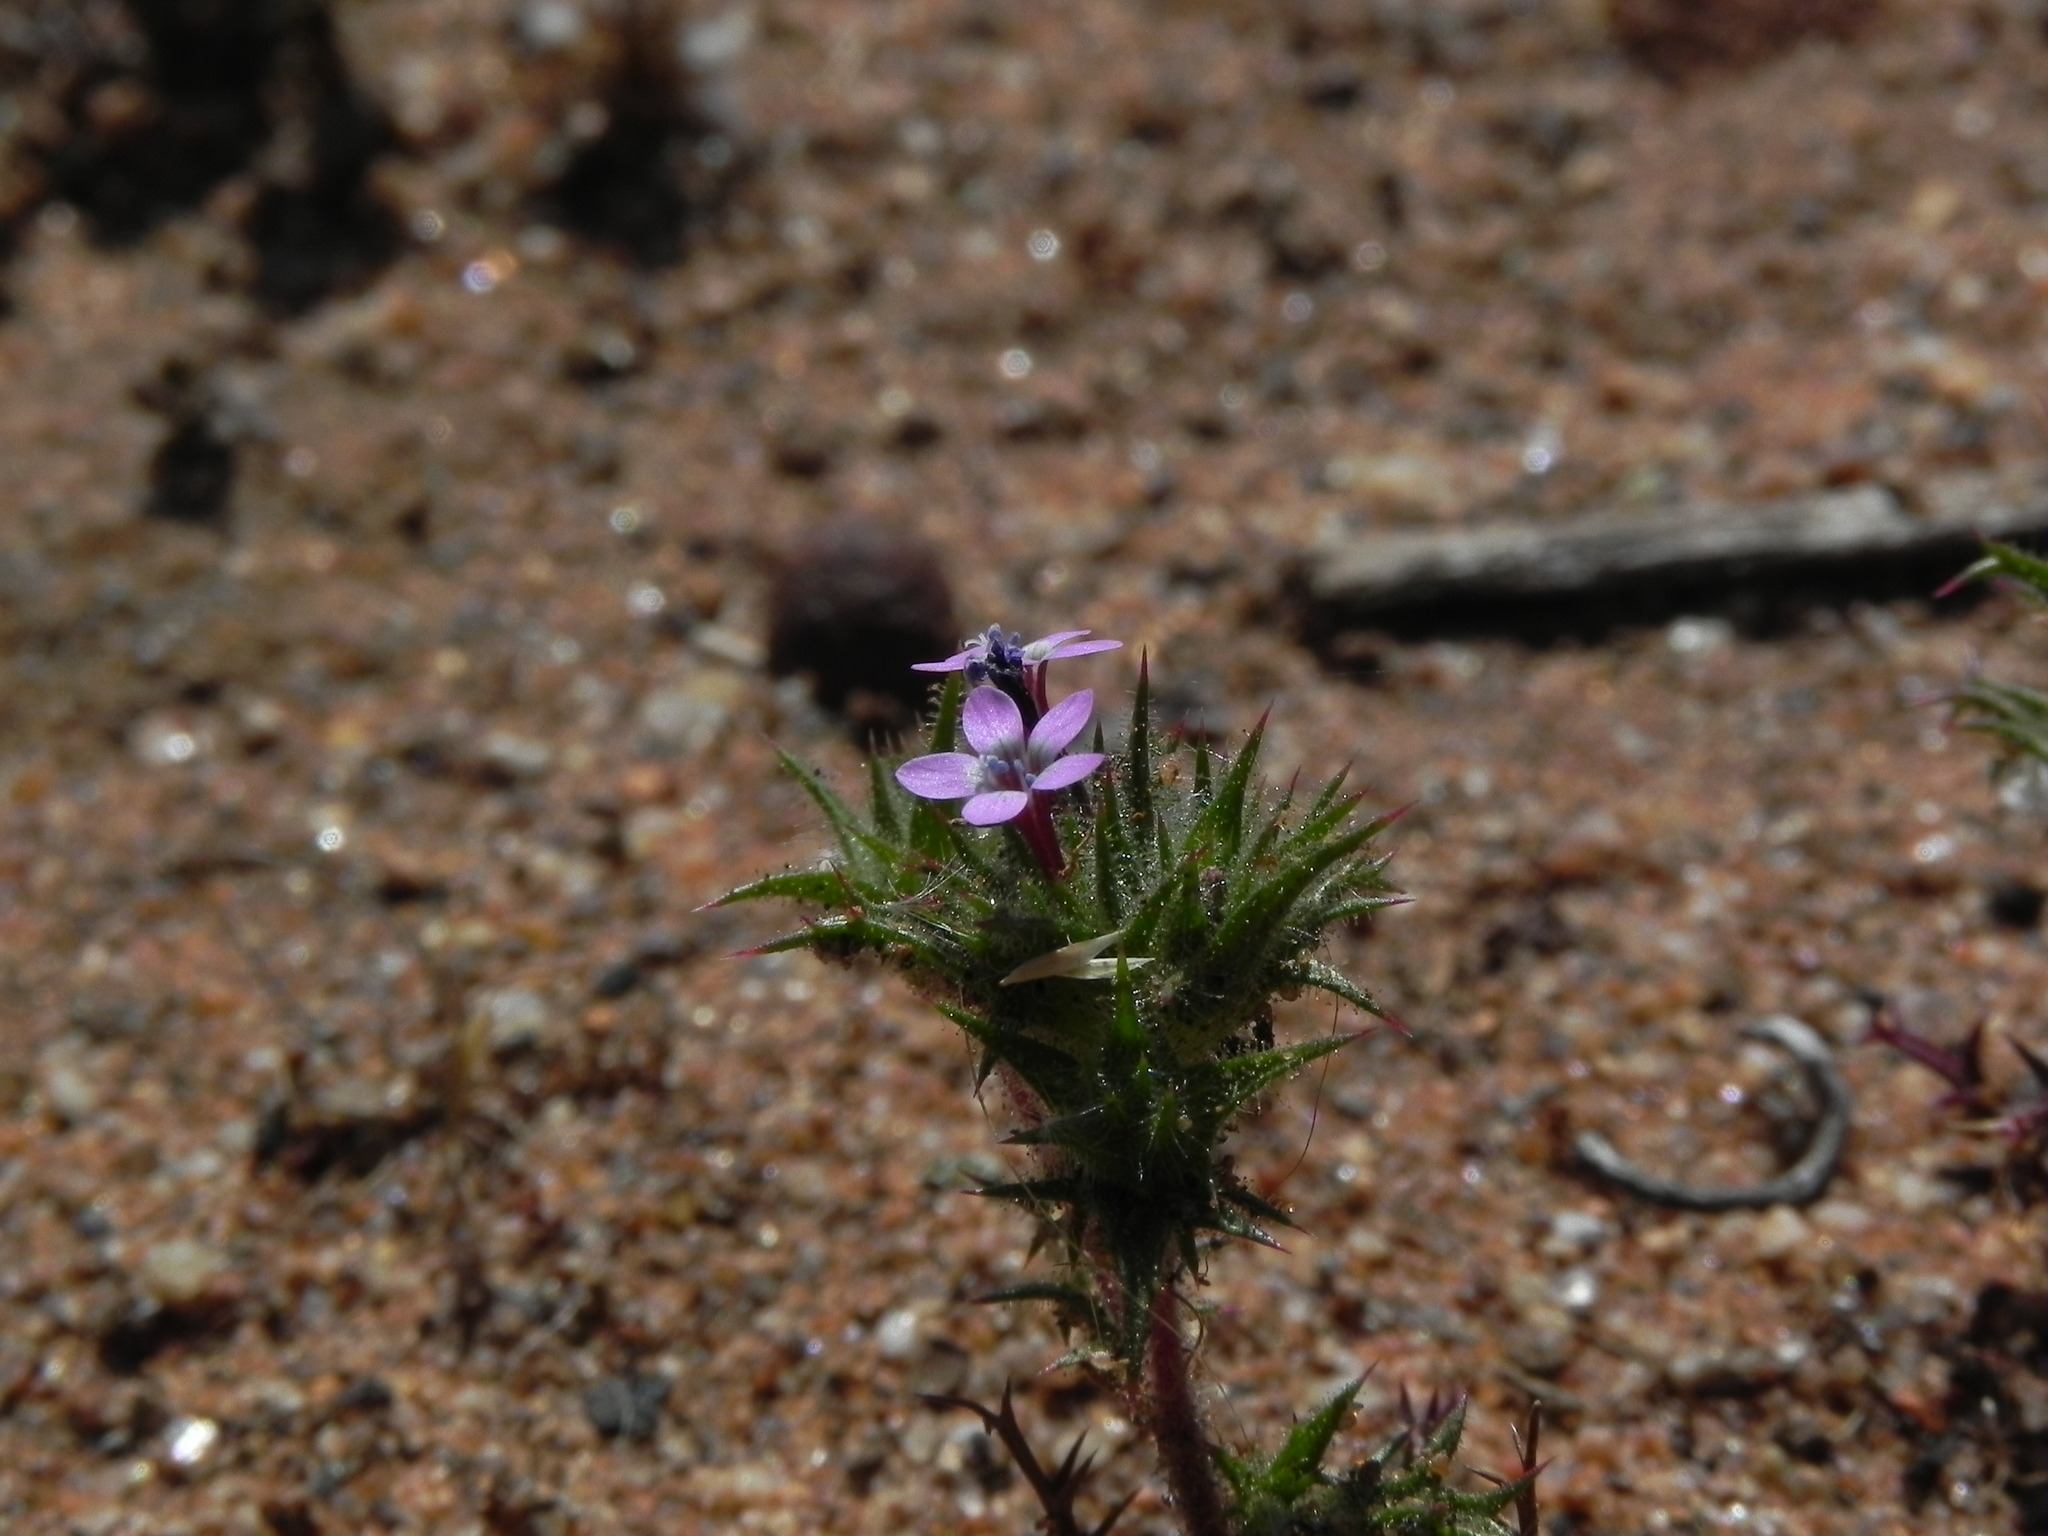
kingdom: Plantae
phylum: Tracheophyta
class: Magnoliopsida
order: Ericales
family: Polemoniaceae
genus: Navarretia
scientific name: Navarretia hamata
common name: Hooked navarretia
